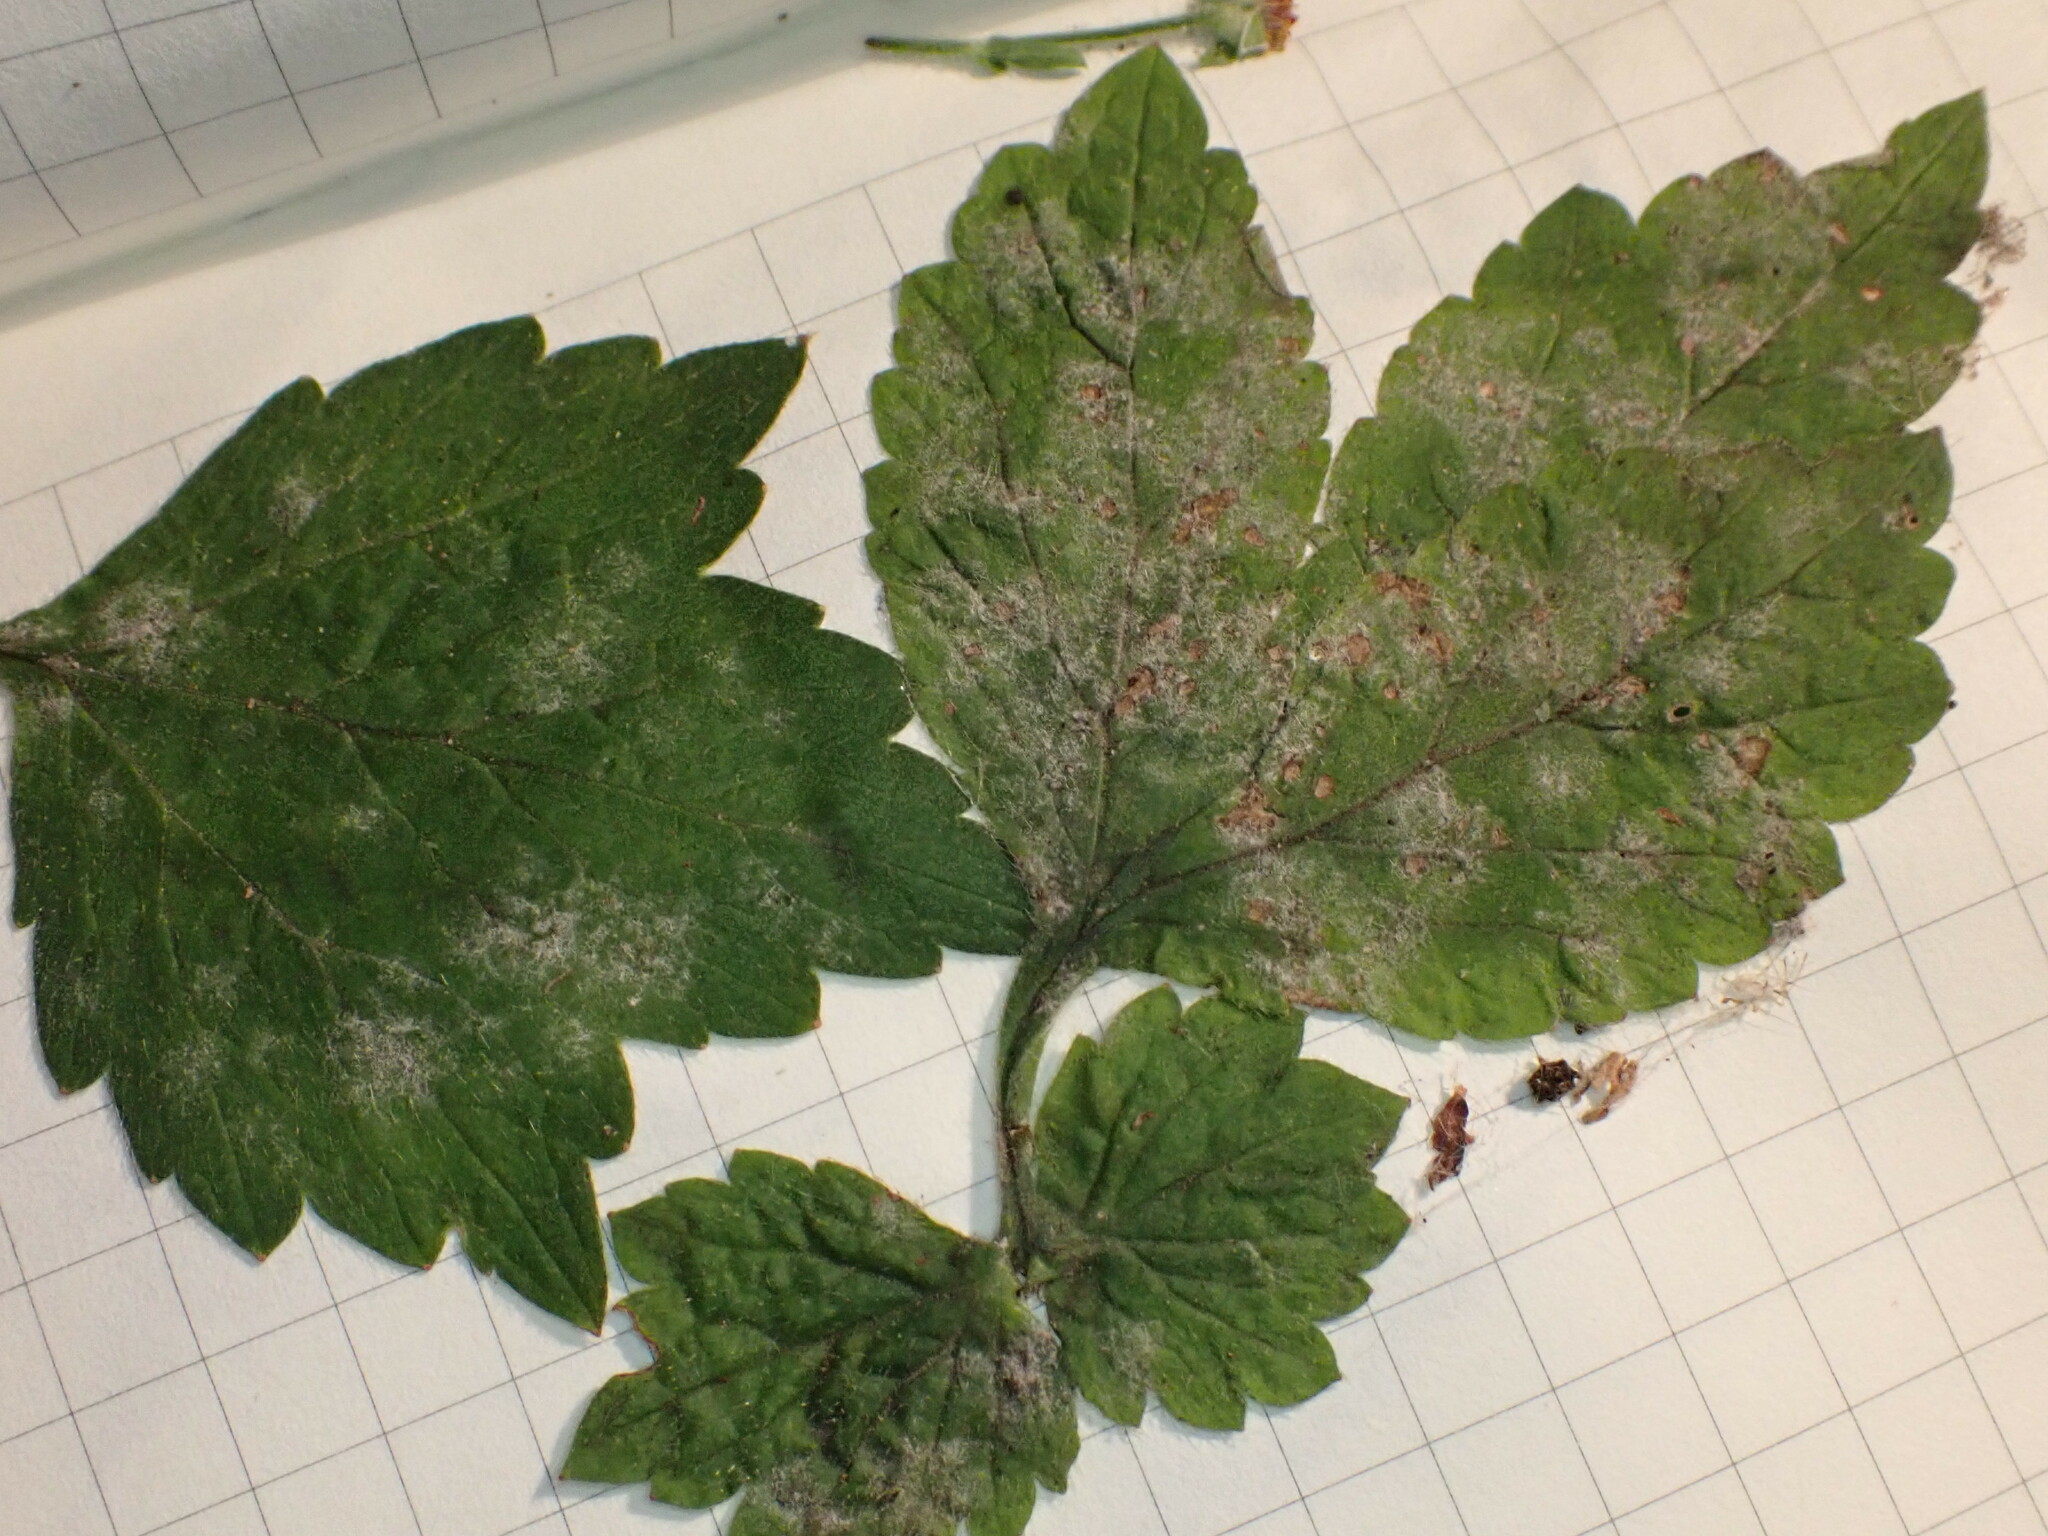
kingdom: Fungi
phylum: Ascomycota
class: Leotiomycetes
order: Helotiales
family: Erysiphaceae
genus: Podosphaera
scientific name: Podosphaera aphanis
